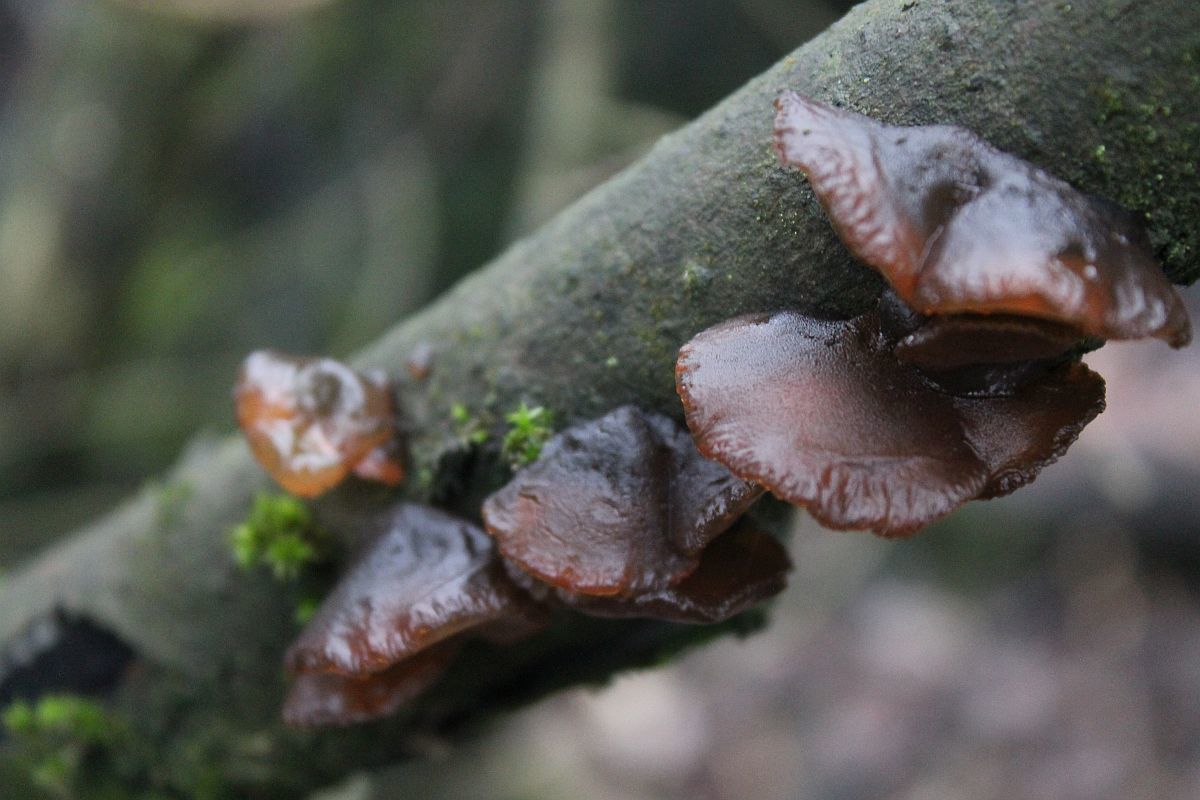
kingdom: Fungi
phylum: Basidiomycota
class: Agaricomycetes
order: Auriculariales
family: Auriculariaceae
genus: Exidia
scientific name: Exidia recisa
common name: Amber jelly
